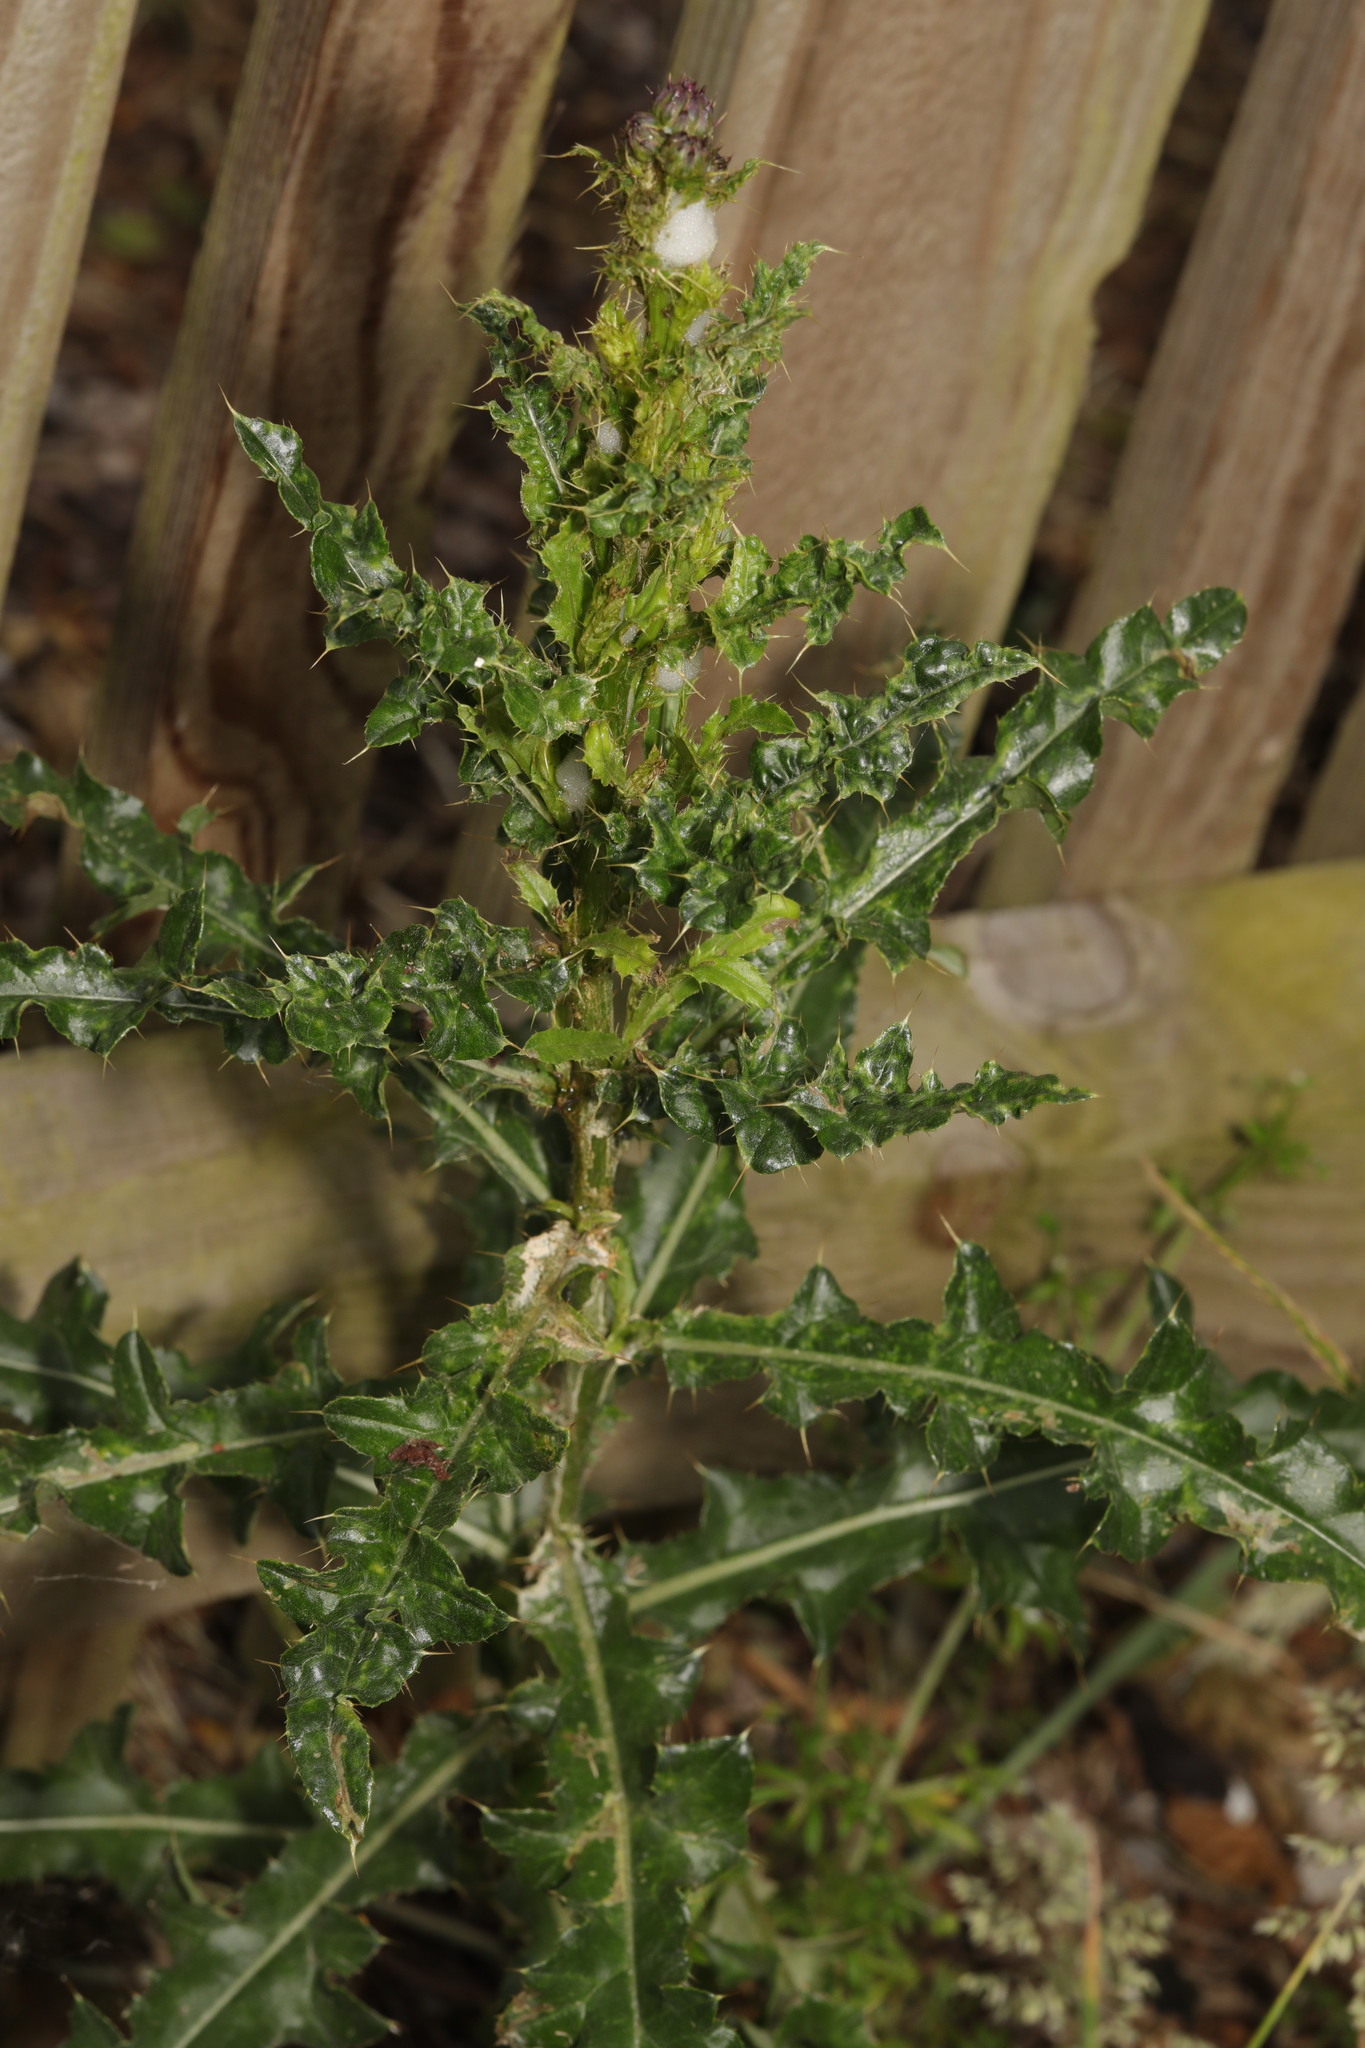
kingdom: Plantae
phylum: Tracheophyta
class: Magnoliopsida
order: Asterales
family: Asteraceae
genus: Cirsium
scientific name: Cirsium arvense
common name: Creeping thistle
